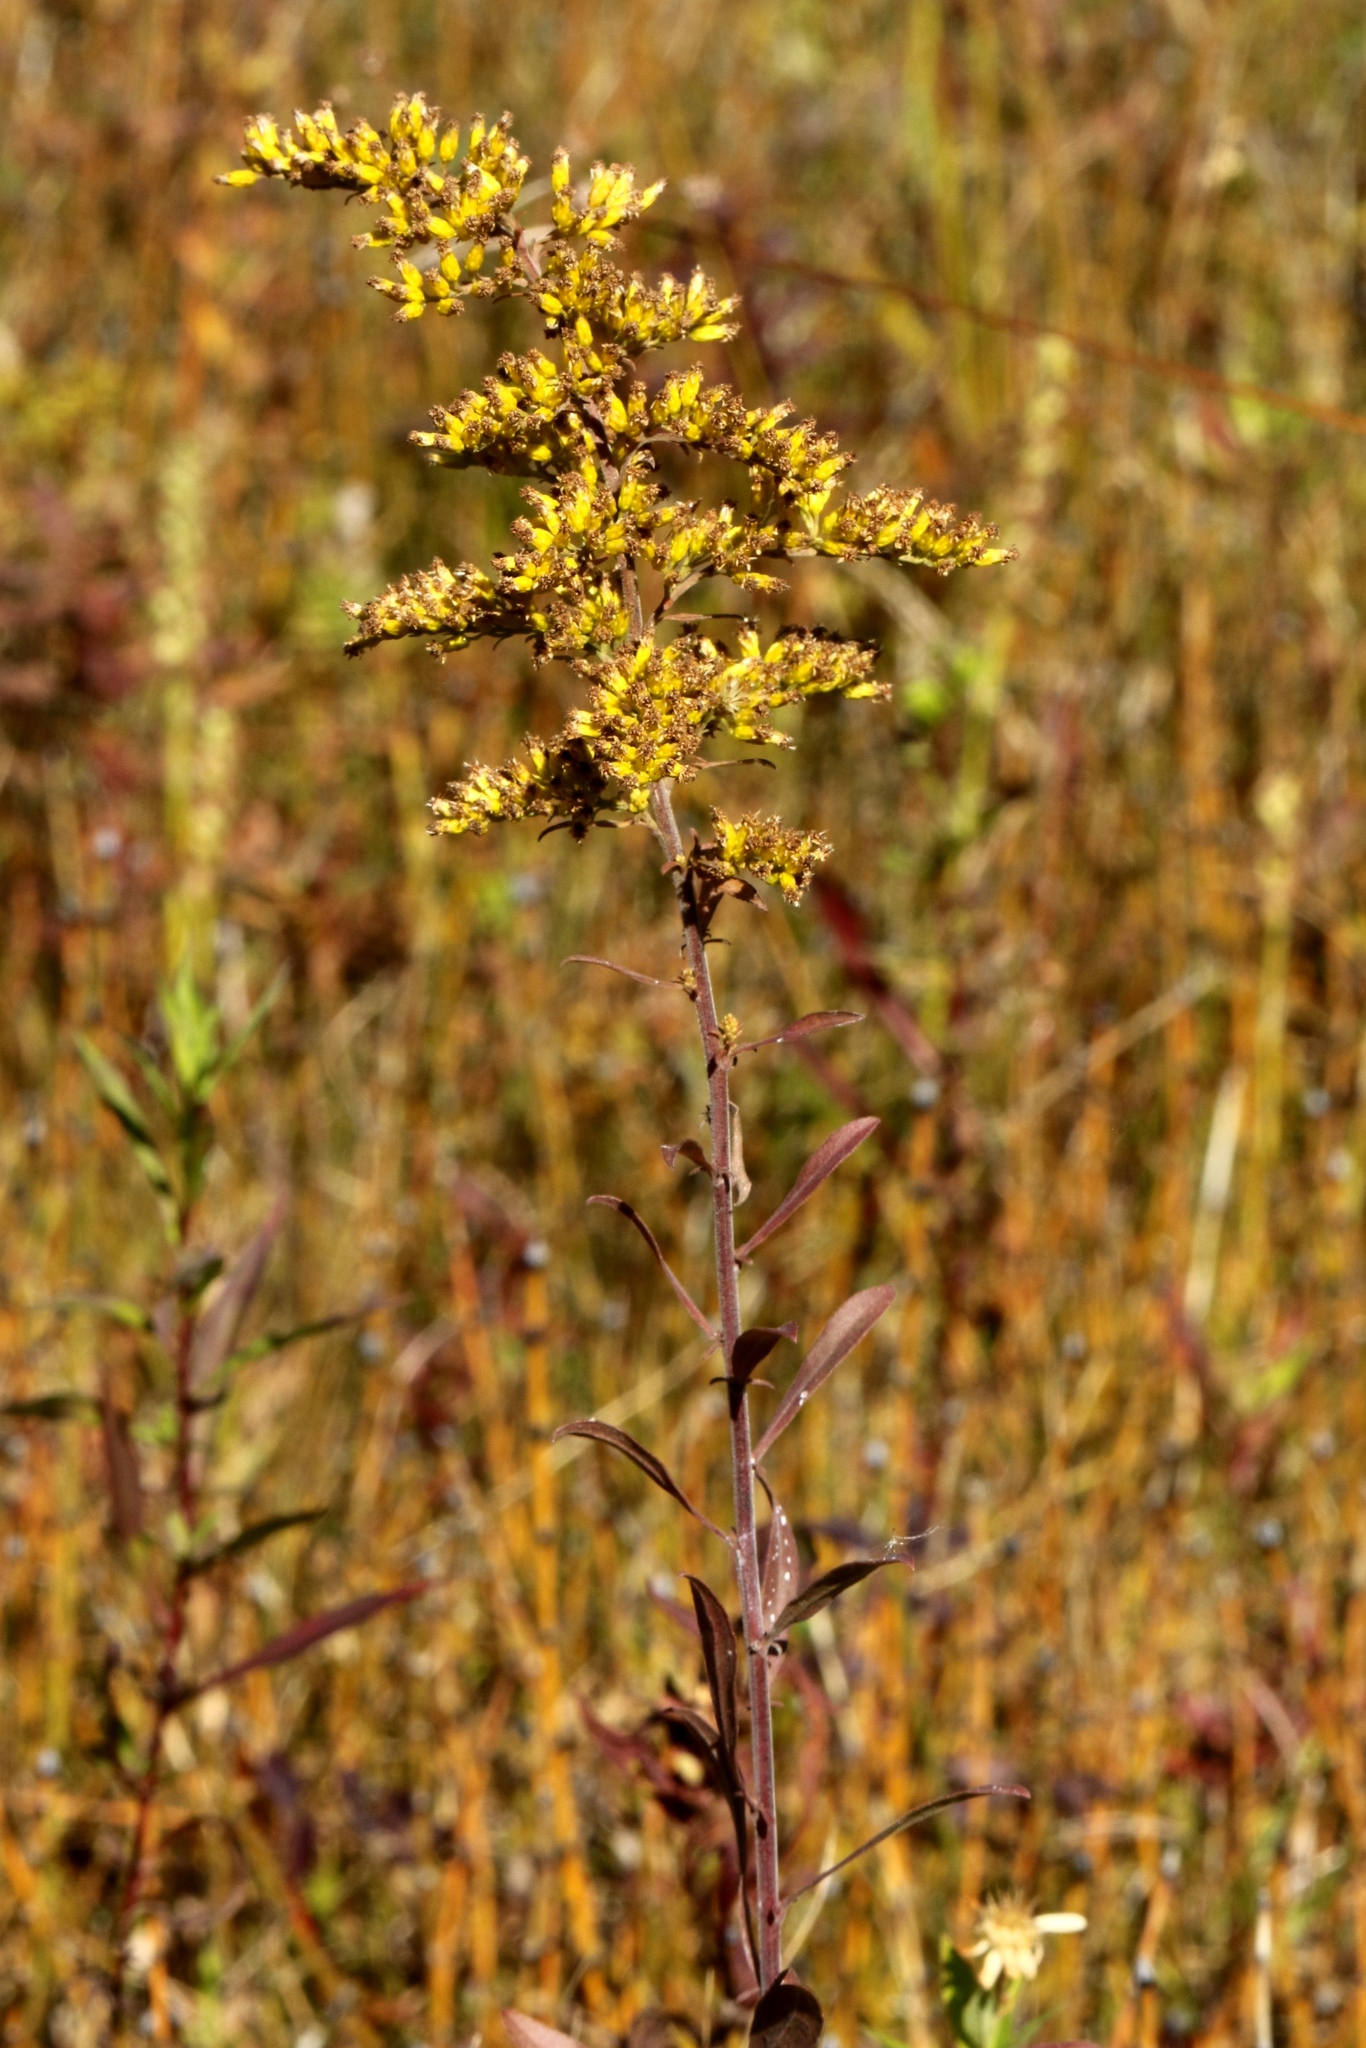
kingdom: Plantae
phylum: Tracheophyta
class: Magnoliopsida
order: Asterales
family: Asteraceae
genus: Solidago
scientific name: Solidago nemoralis
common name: Grey goldenrod
